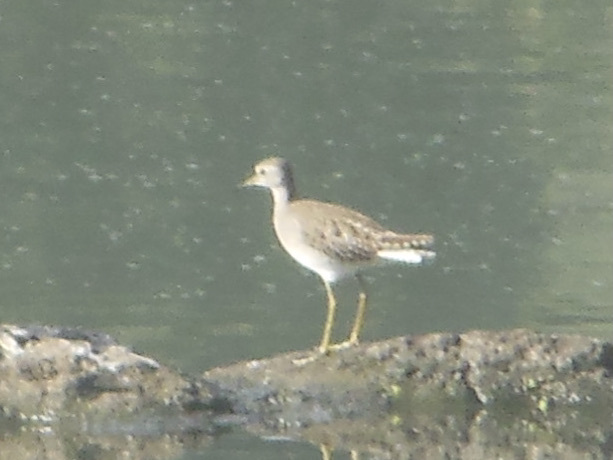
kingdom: Animalia
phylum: Chordata
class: Aves
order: Charadriiformes
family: Scolopacidae
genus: Tringa
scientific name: Tringa glareola
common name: Wood sandpiper
